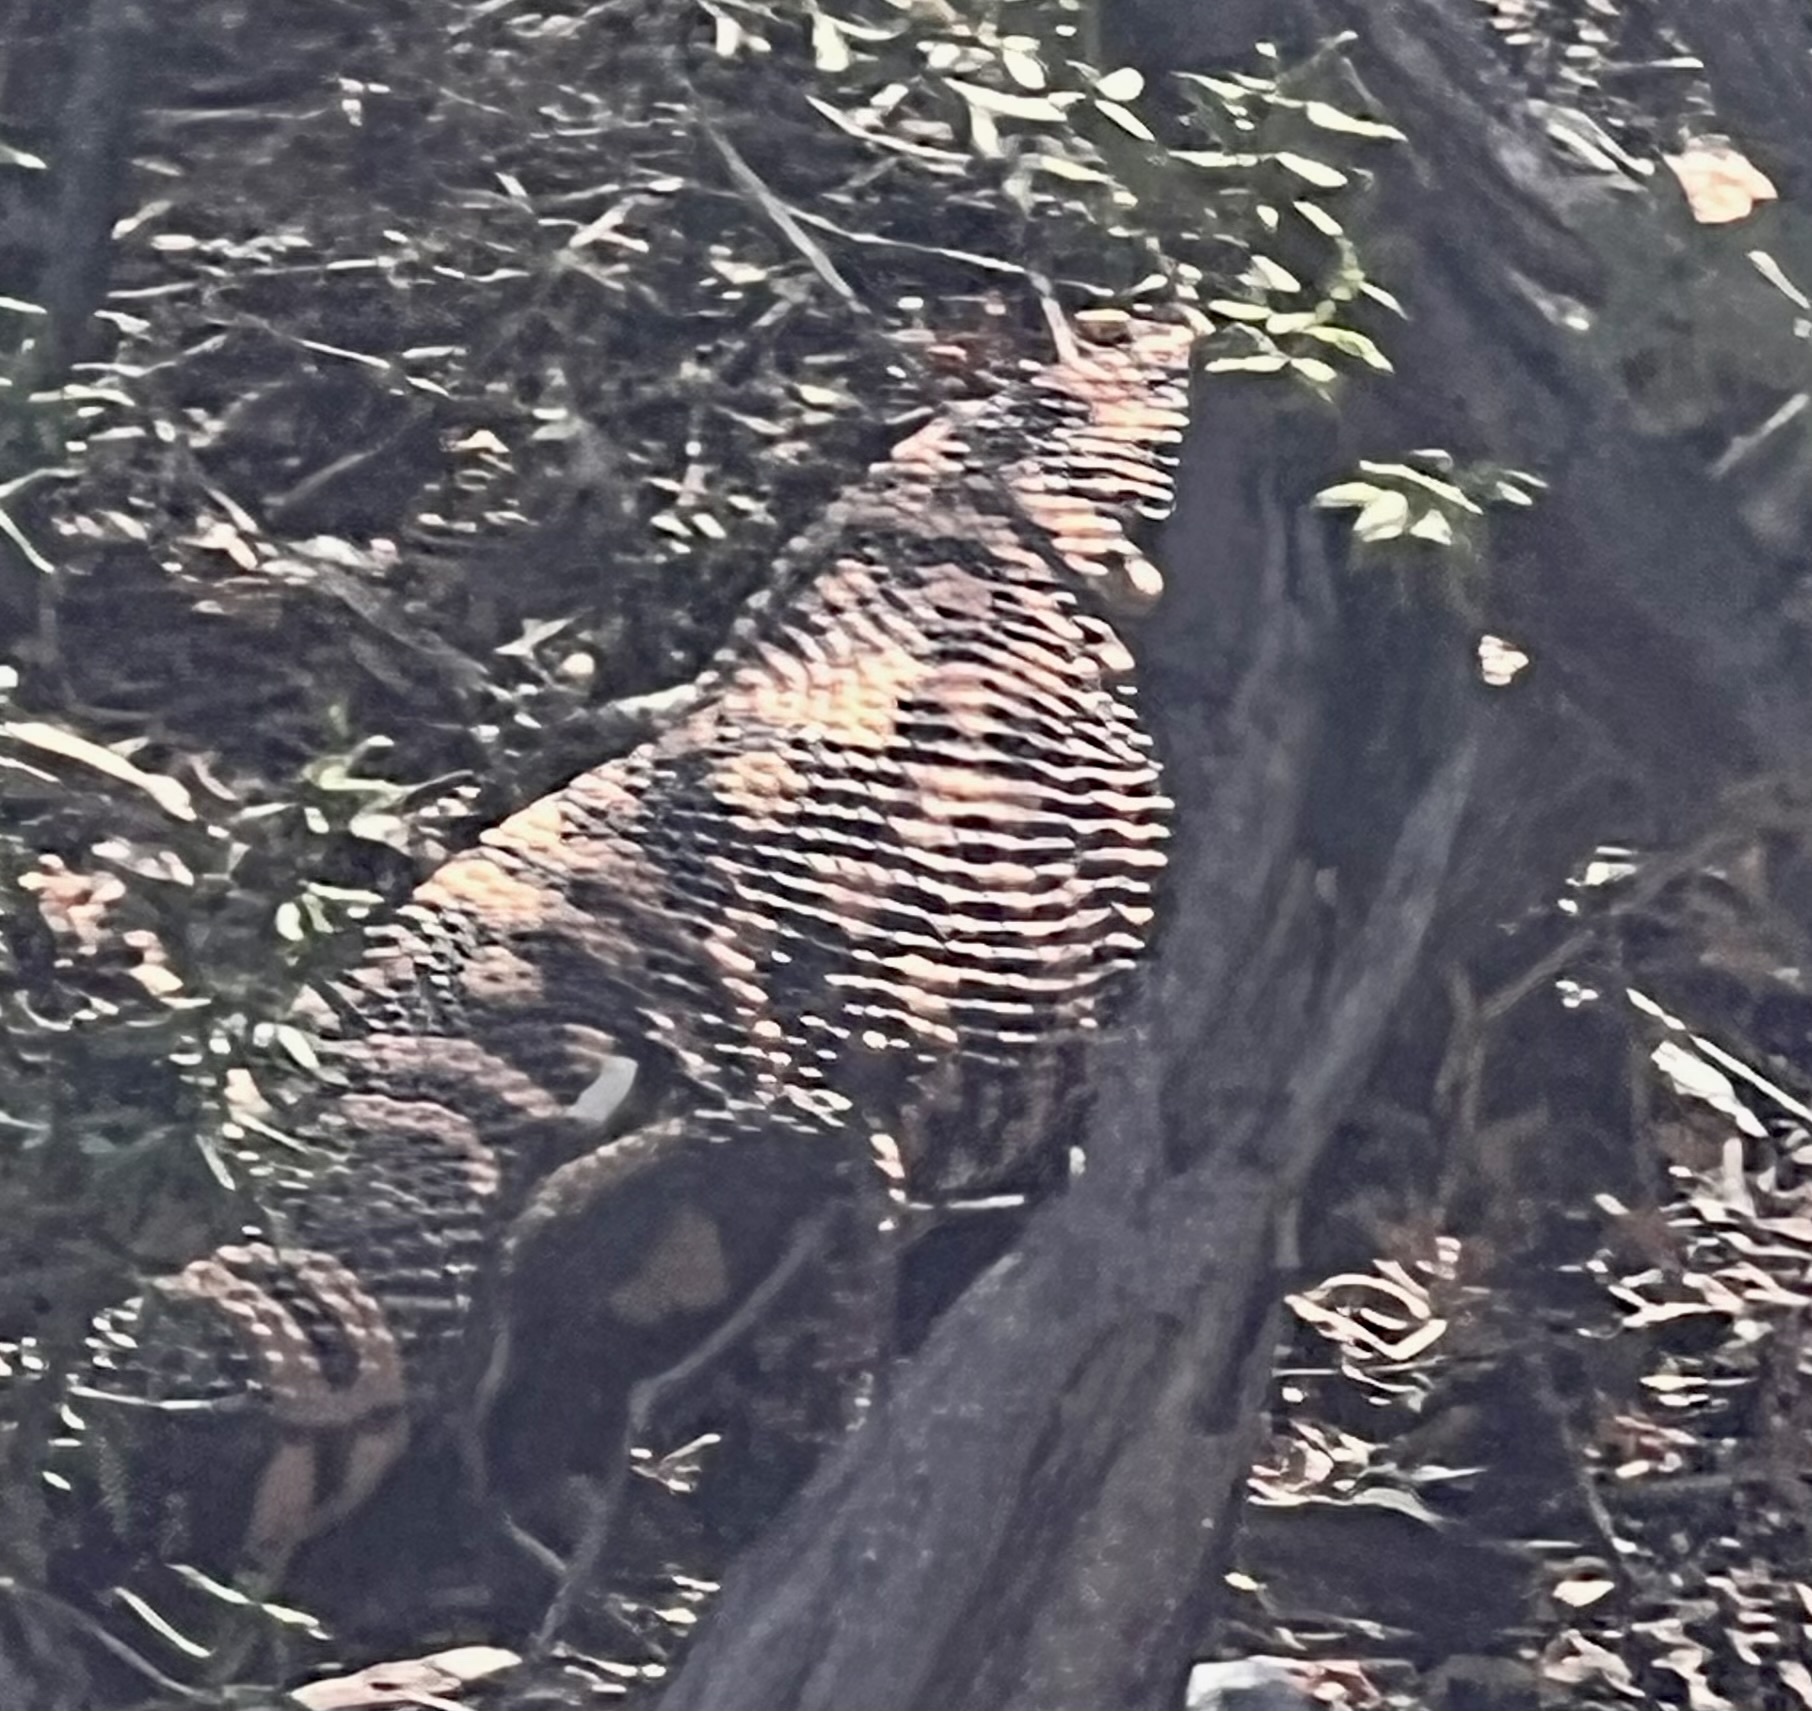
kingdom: Animalia
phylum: Chordata
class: Squamata
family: Helodermatidae
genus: Heloderma
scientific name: Heloderma suspectum
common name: Gila monster
